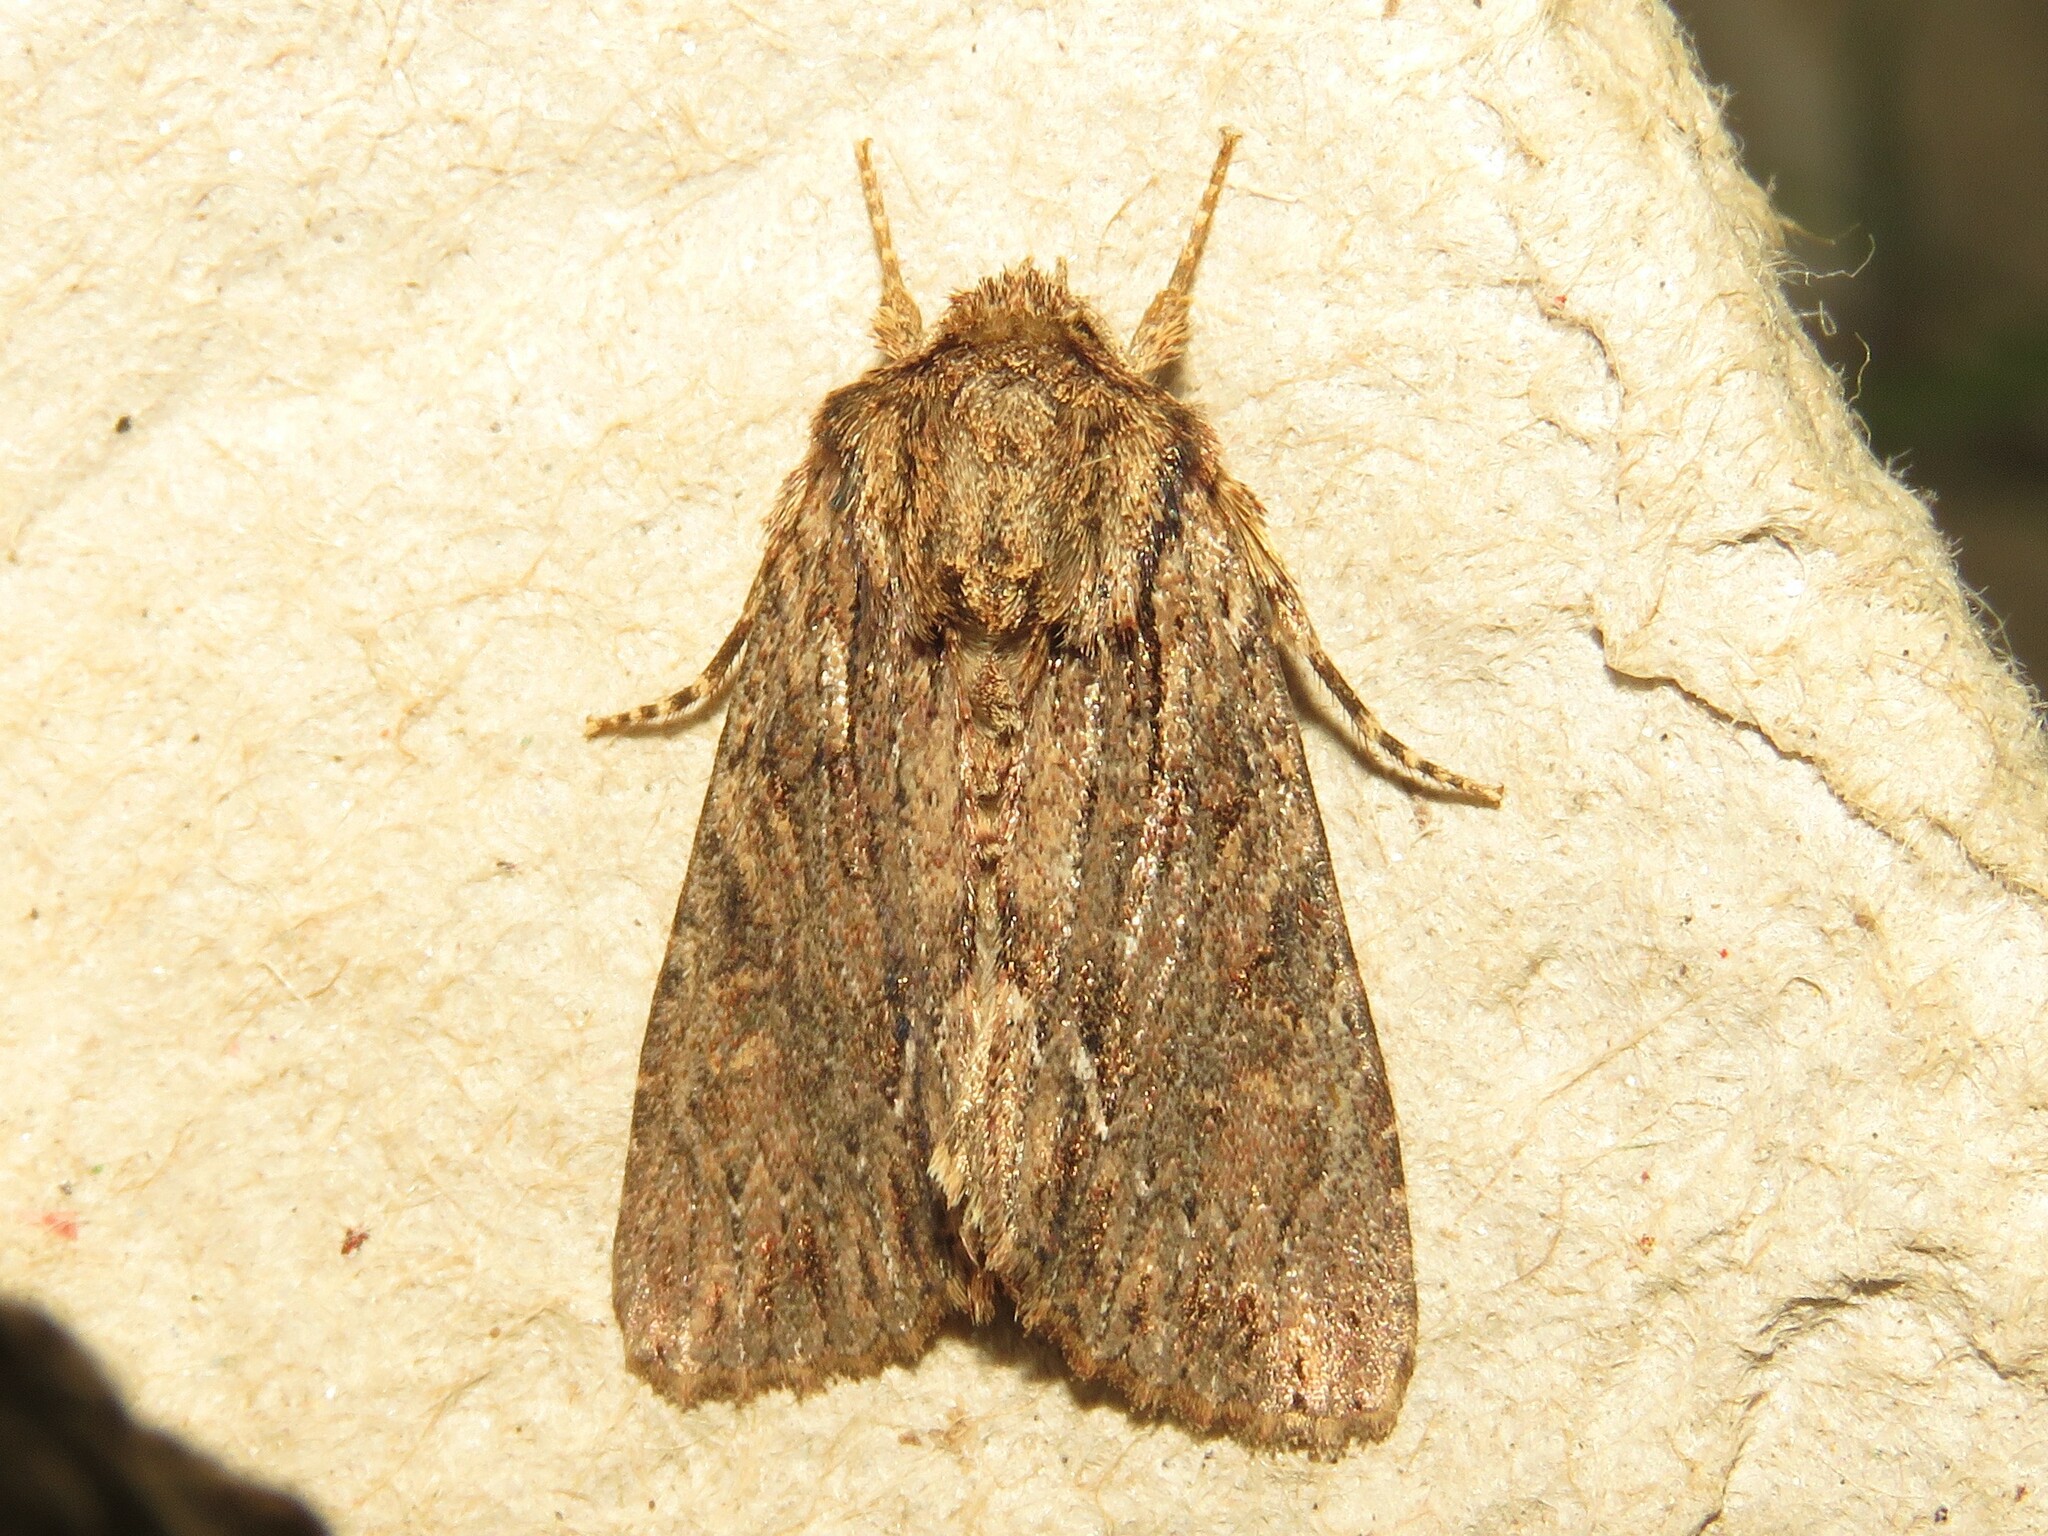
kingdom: Animalia
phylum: Arthropoda
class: Insecta
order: Lepidoptera
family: Noctuidae
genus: Achatia
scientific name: Achatia confusa
